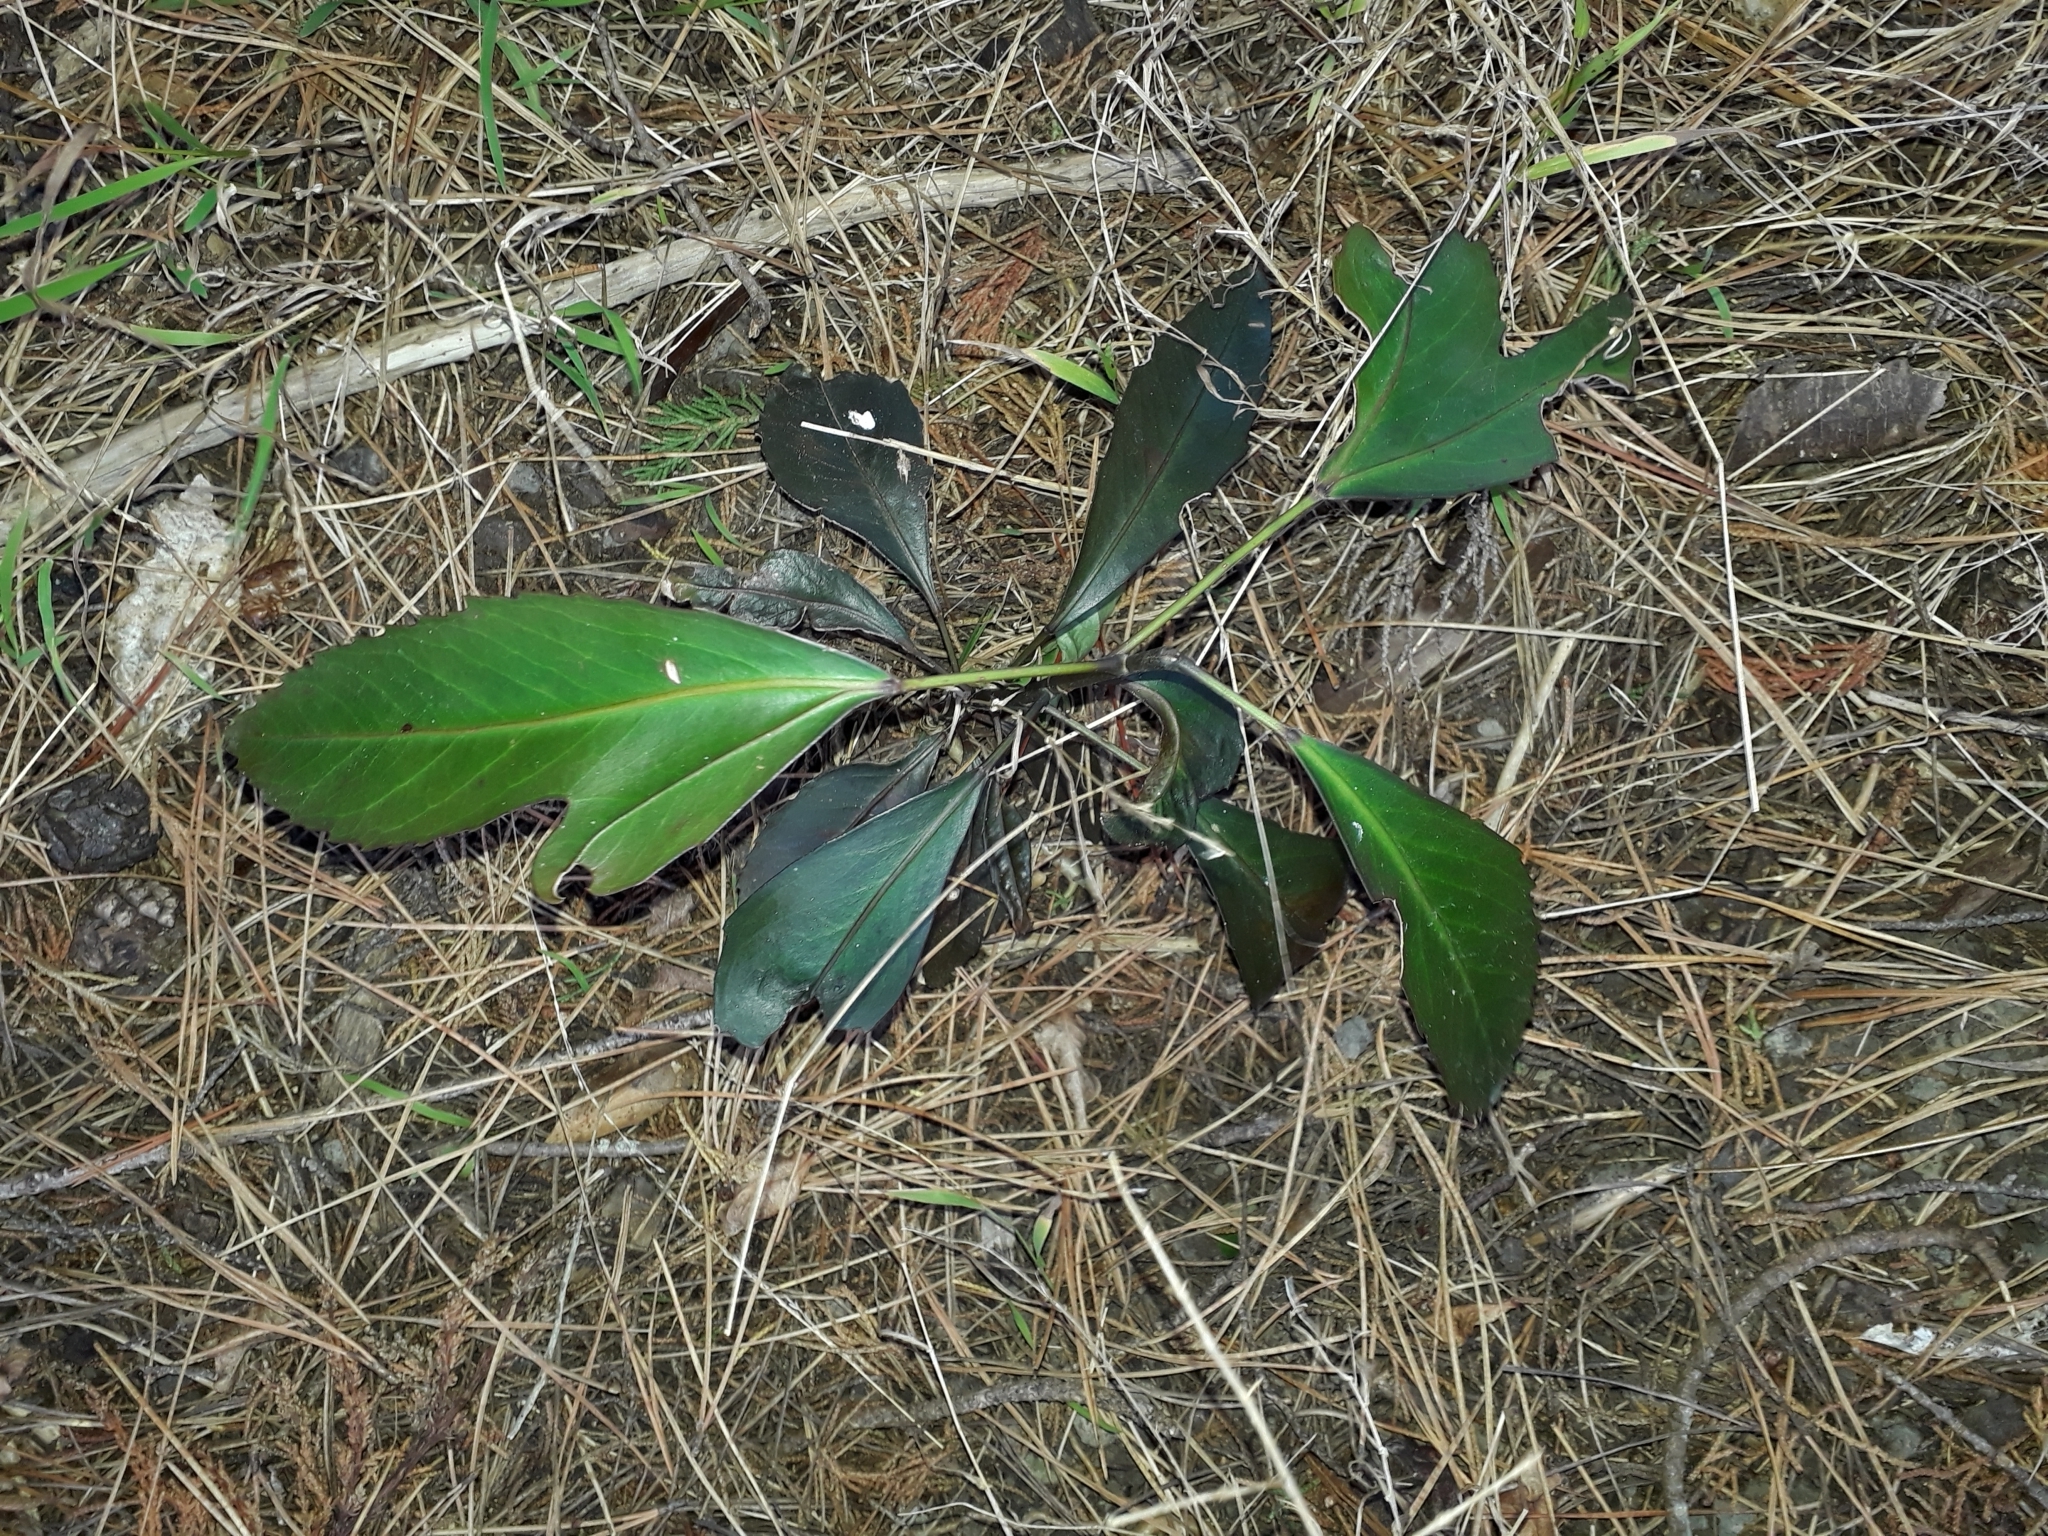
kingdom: Plantae
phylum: Tracheophyta
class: Magnoliopsida
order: Apiales
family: Araliaceae
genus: Pseudopanax
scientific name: Pseudopanax
